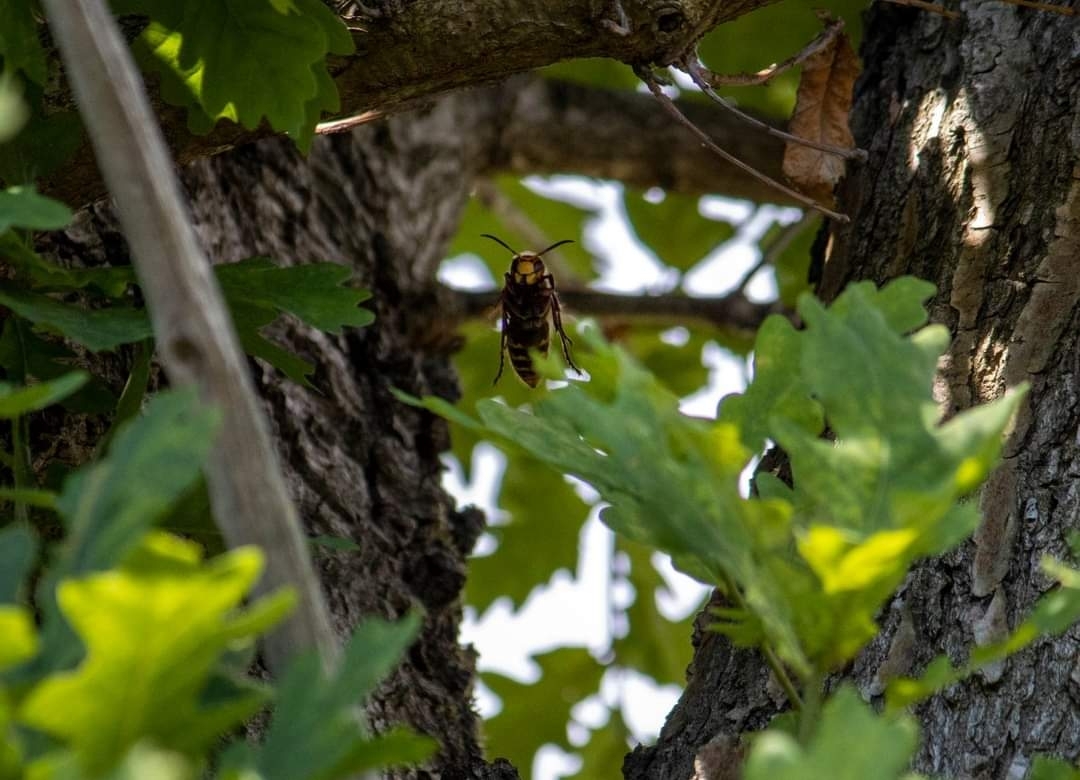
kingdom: Animalia
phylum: Arthropoda
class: Insecta
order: Hymenoptera
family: Vespidae
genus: Vespa
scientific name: Vespa crabro
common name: Hornet
